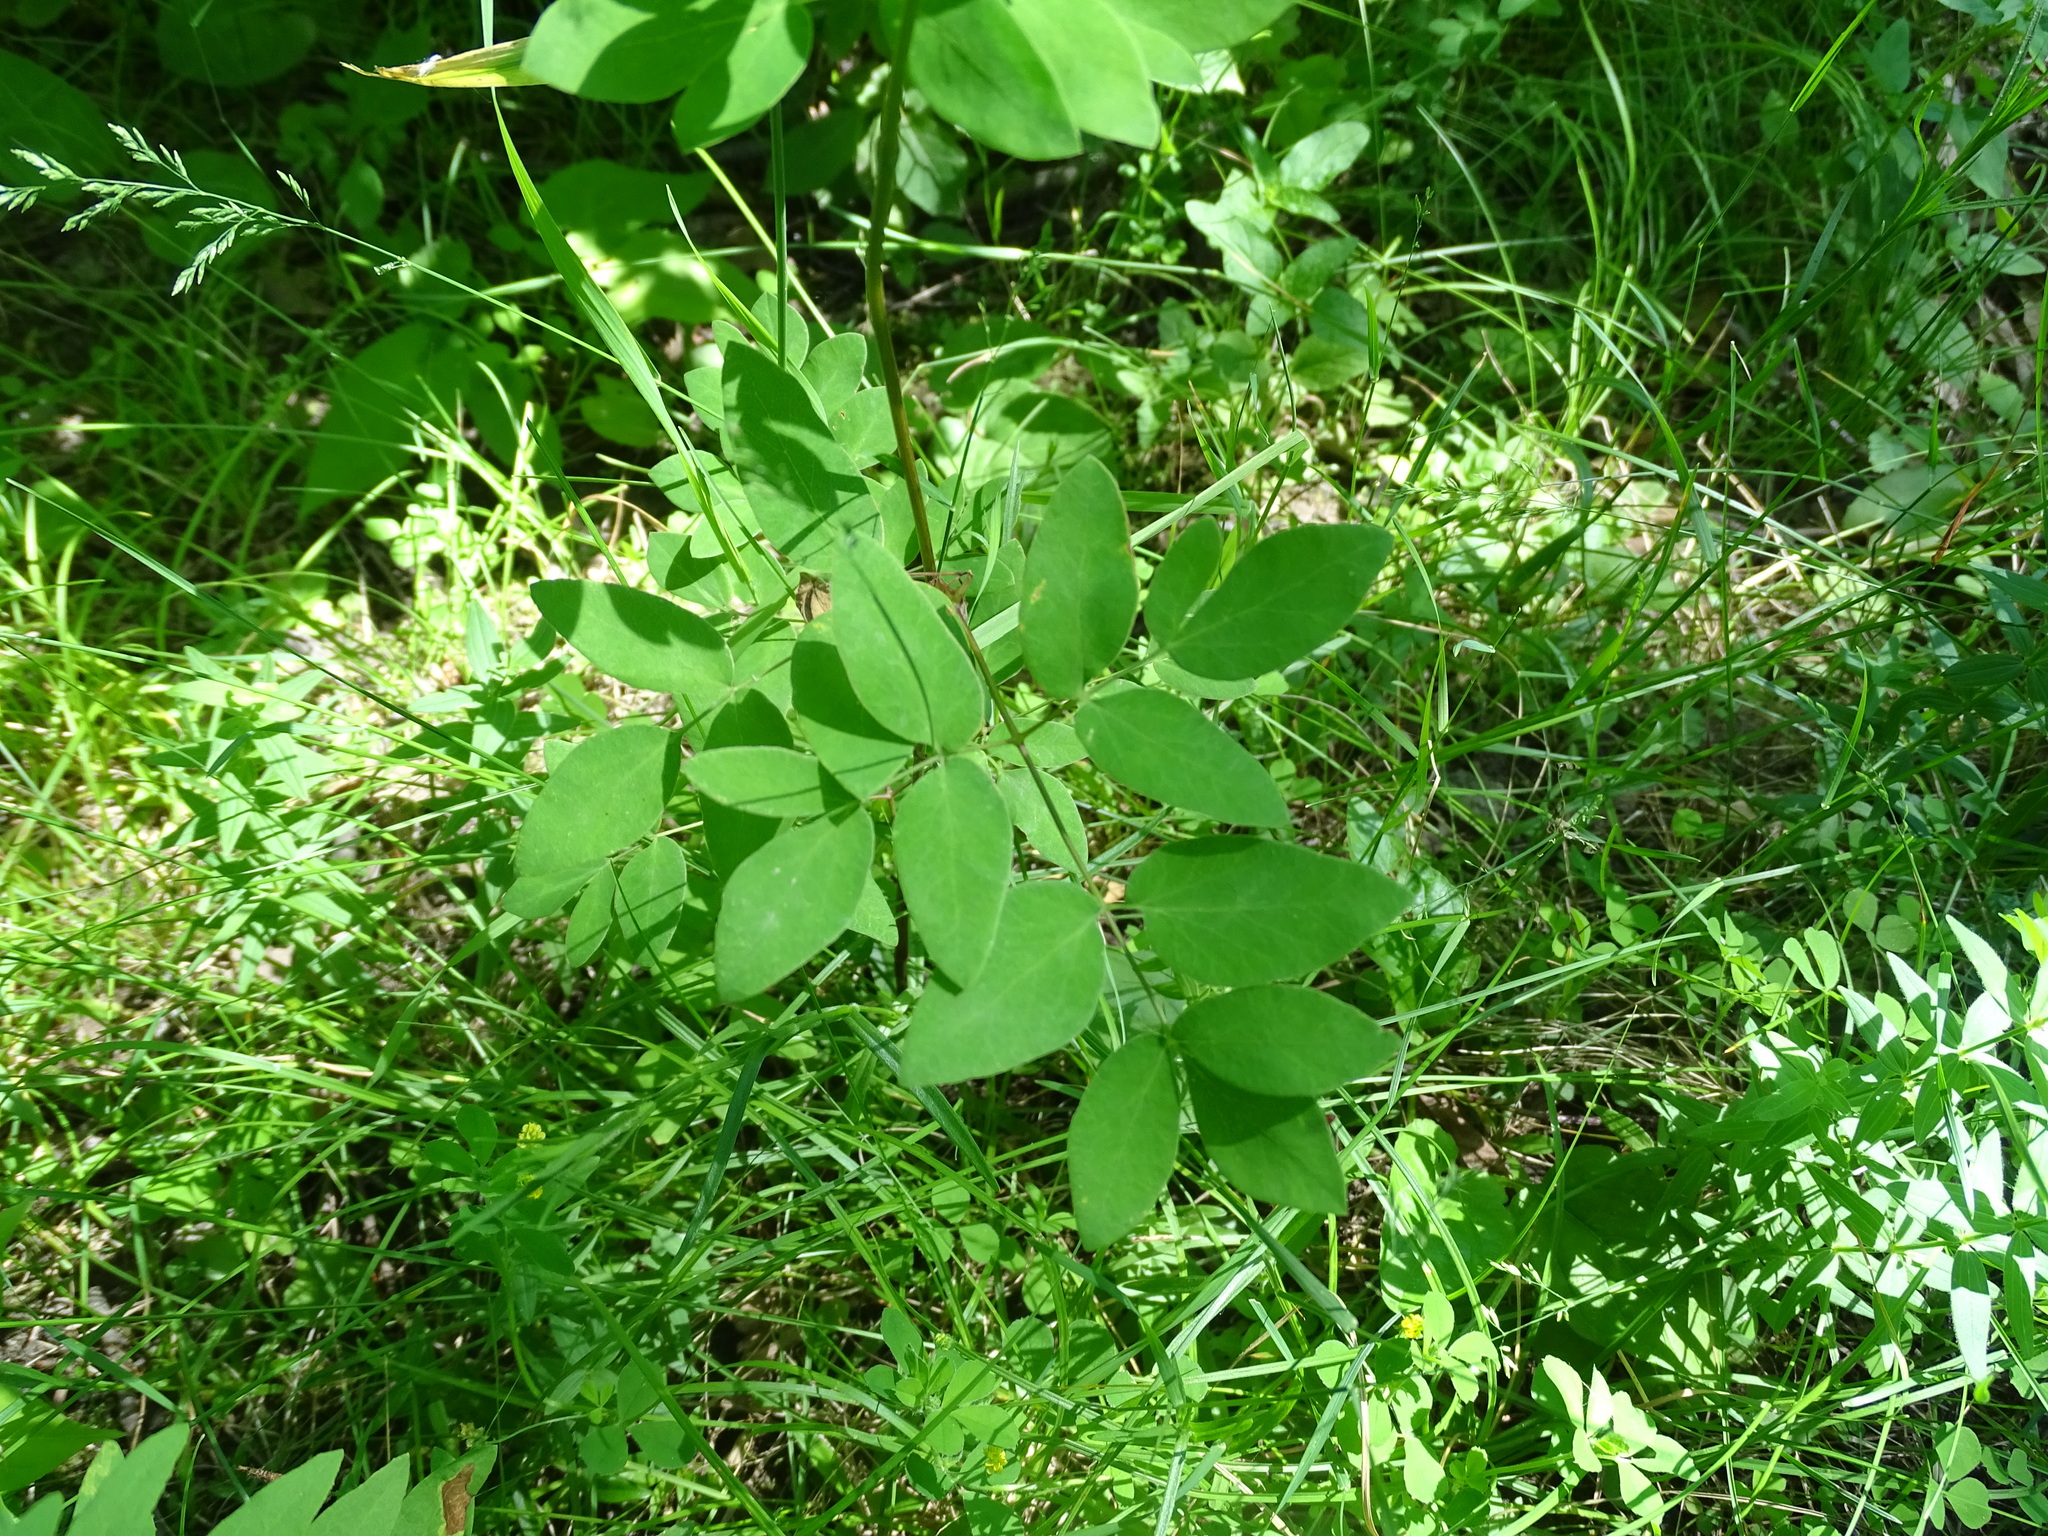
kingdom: Plantae
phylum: Tracheophyta
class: Magnoliopsida
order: Apiales
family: Apiaceae
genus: Taenidia
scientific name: Taenidia integerrima
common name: Golden alexander
